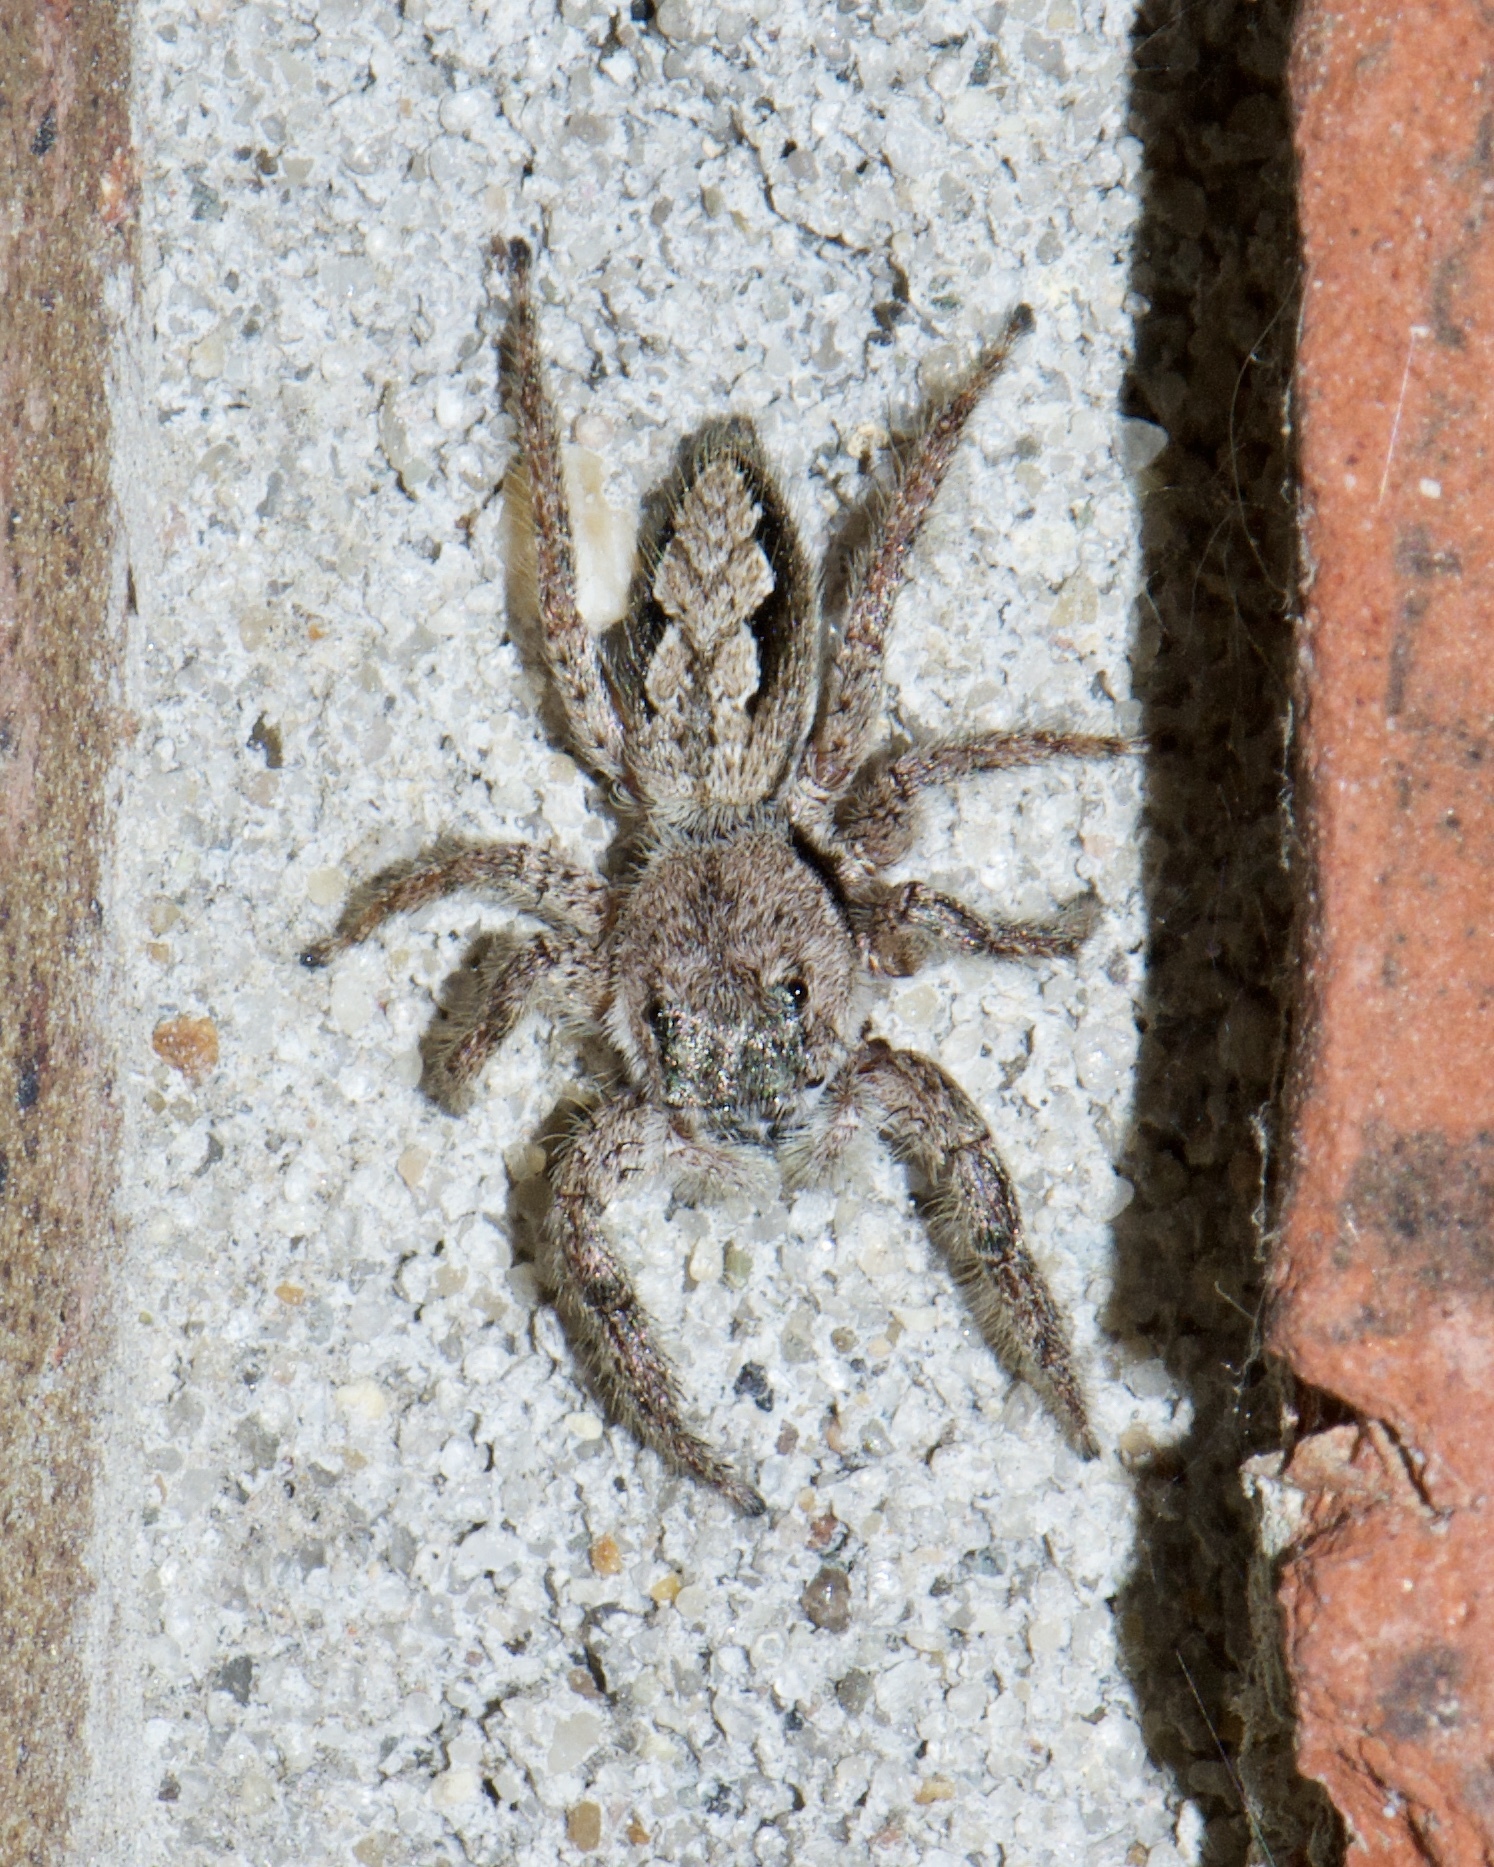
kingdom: Animalia
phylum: Arthropoda
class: Arachnida
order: Araneae
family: Salticidae
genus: Platycryptus
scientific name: Platycryptus undatus
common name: Tan jumping spider
